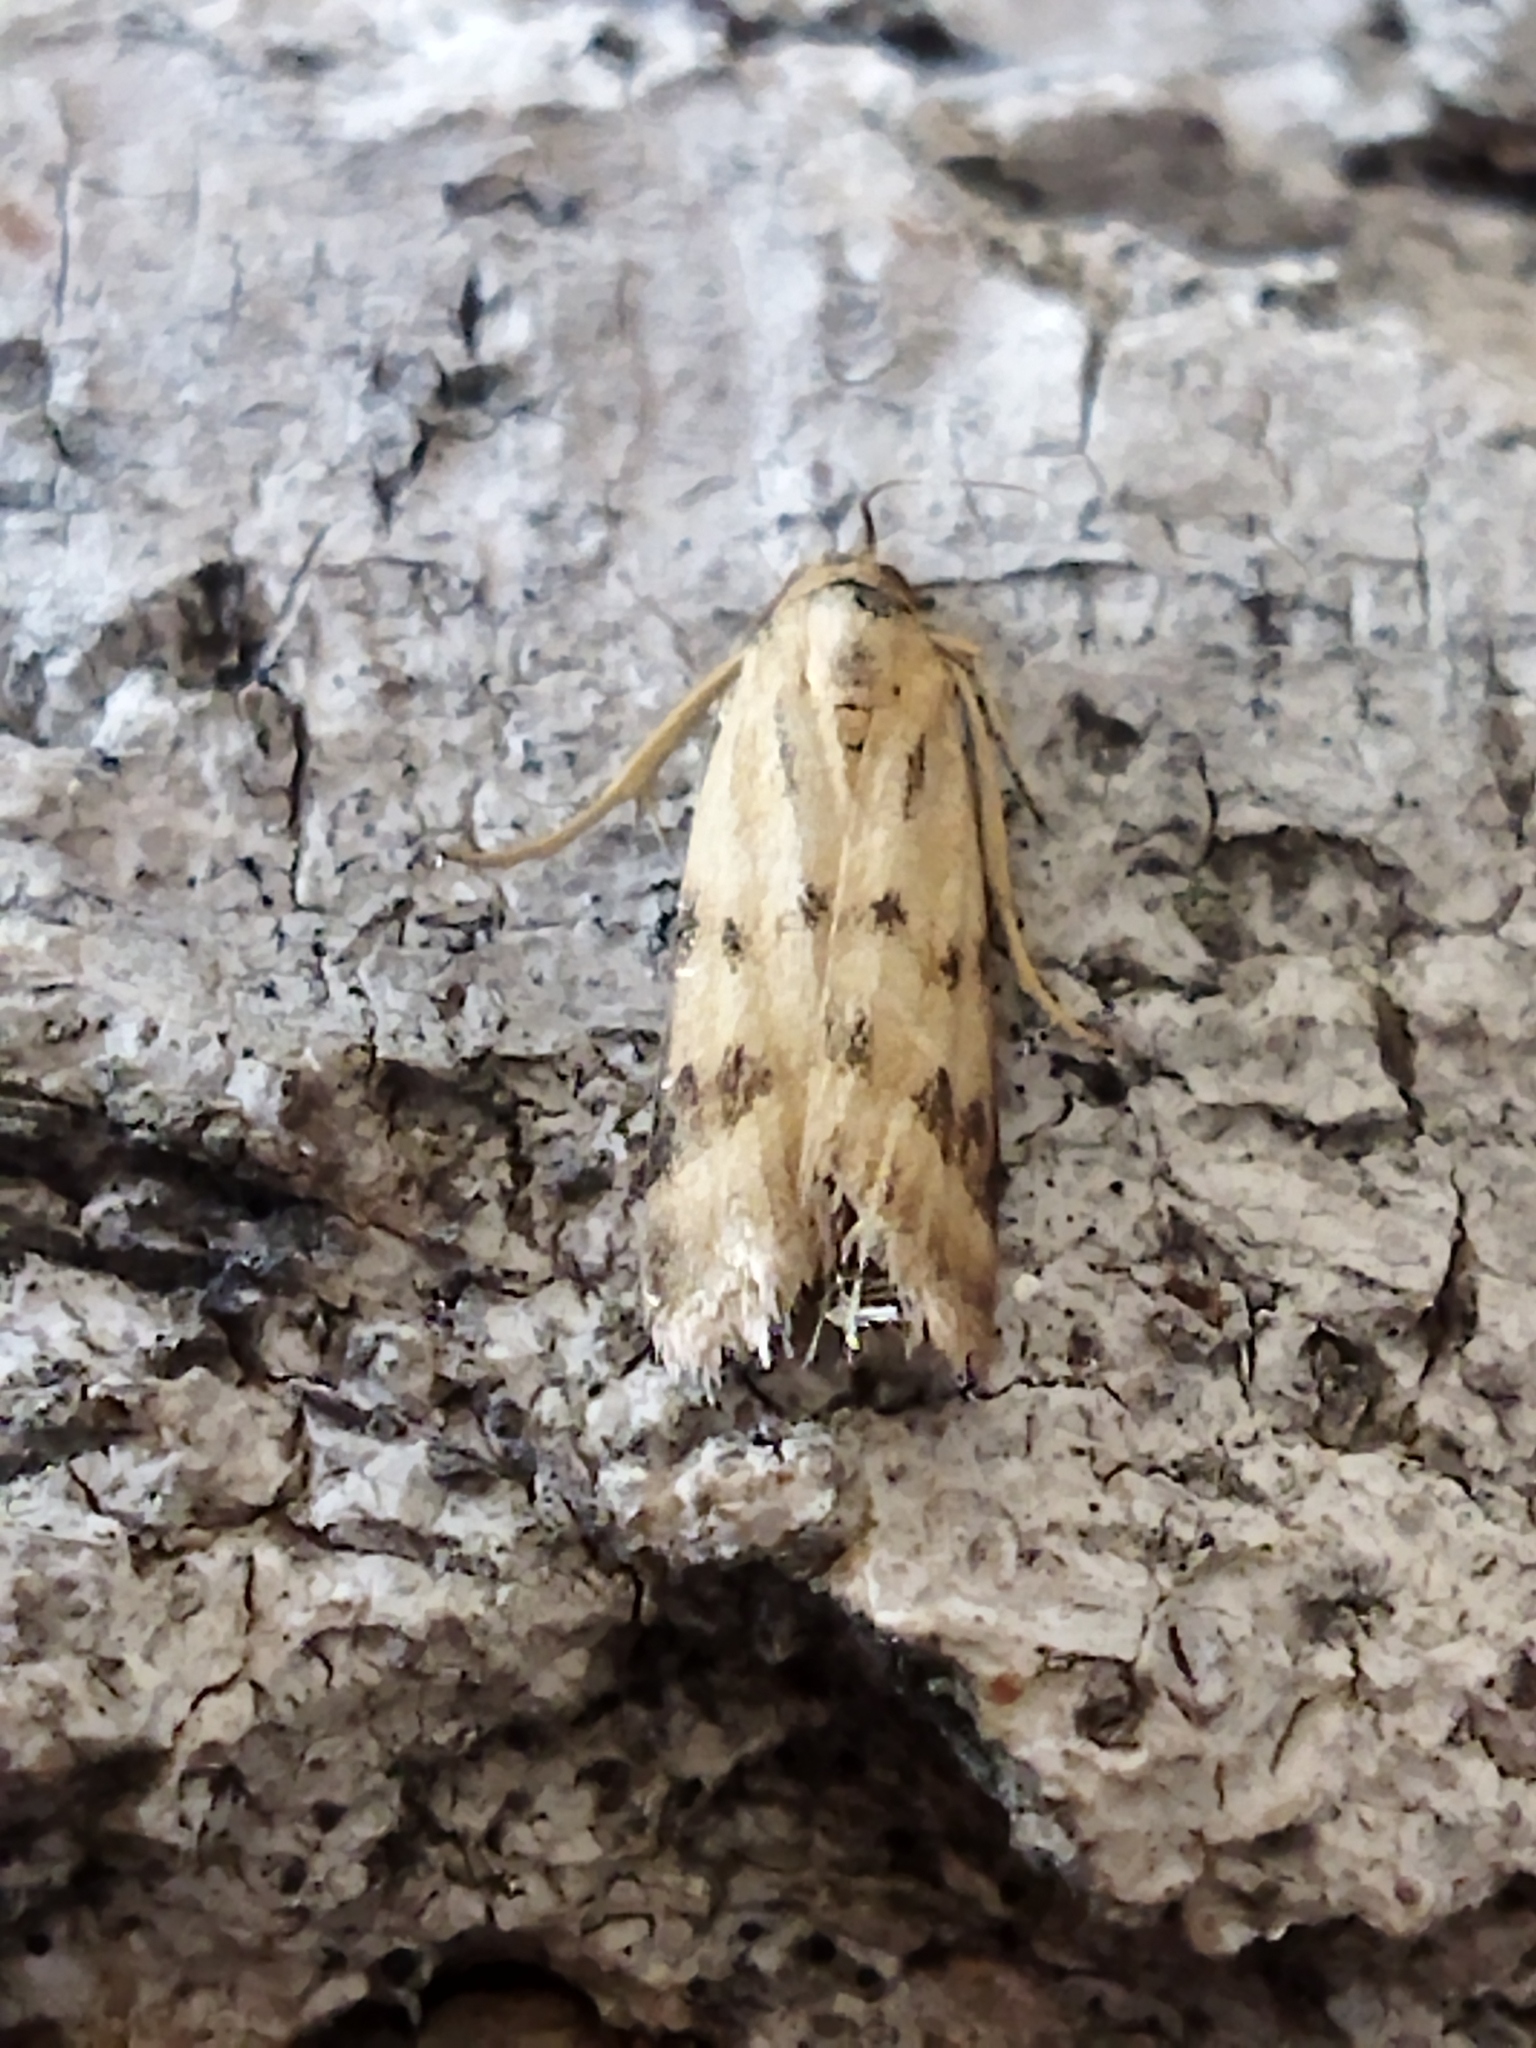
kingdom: Animalia
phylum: Arthropoda
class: Insecta
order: Lepidoptera
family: Pyralidae
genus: Homoeosoma
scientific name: Homoeosoma sinuella
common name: Twin-barred knot-horn
